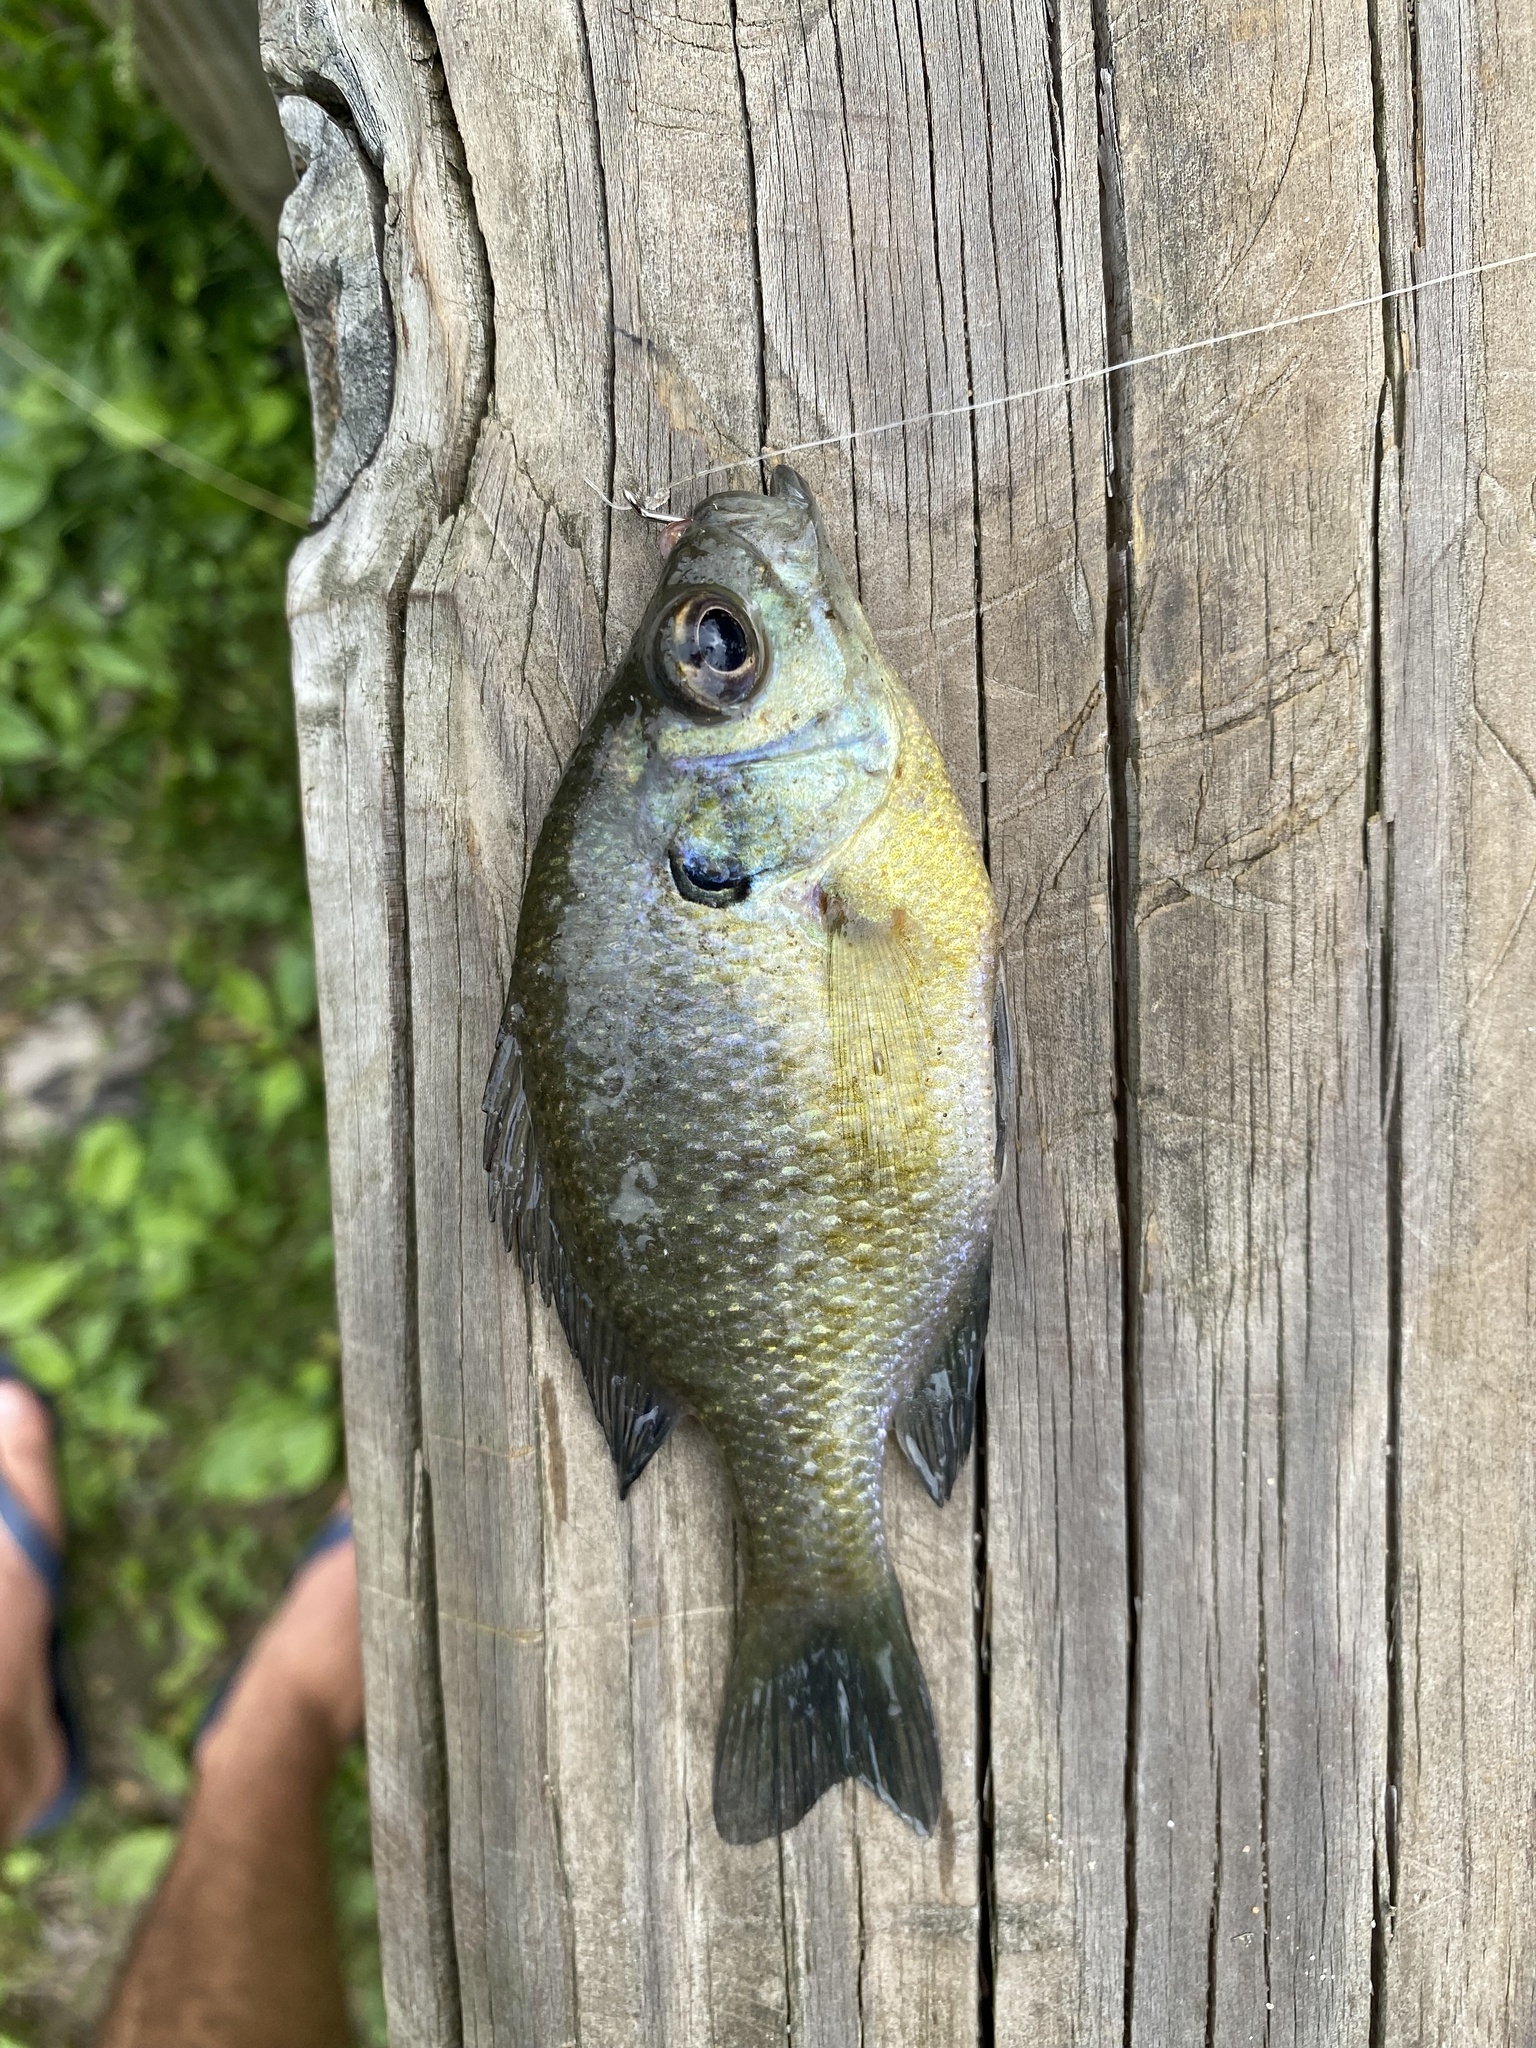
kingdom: Animalia
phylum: Chordata
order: Perciformes
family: Centrarchidae
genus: Lepomis
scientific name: Lepomis macrochirus
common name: Bluegill
